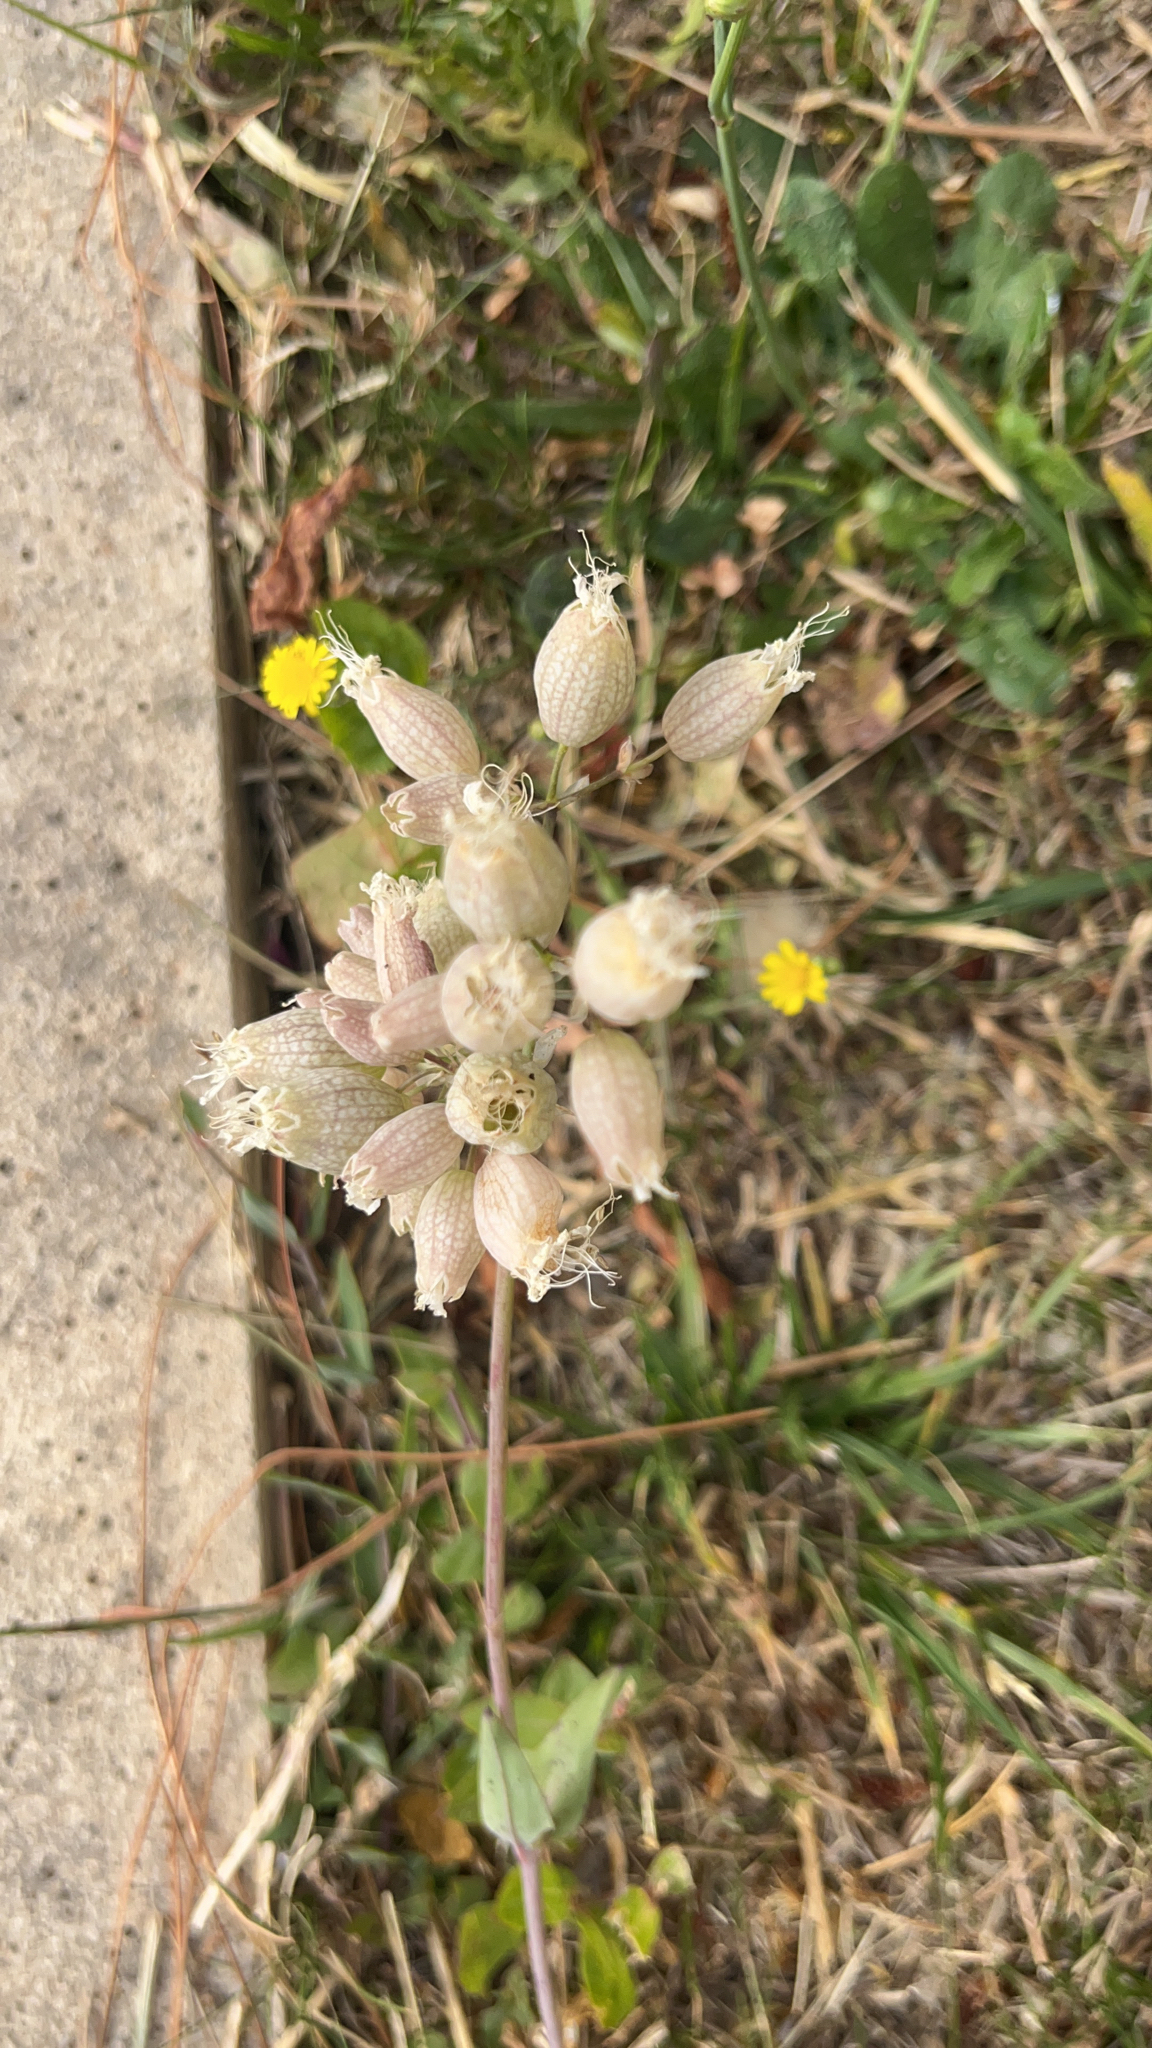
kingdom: Plantae
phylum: Tracheophyta
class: Magnoliopsida
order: Caryophyllales
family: Caryophyllaceae
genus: Silene
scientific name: Silene vulgaris
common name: Bladder campion
